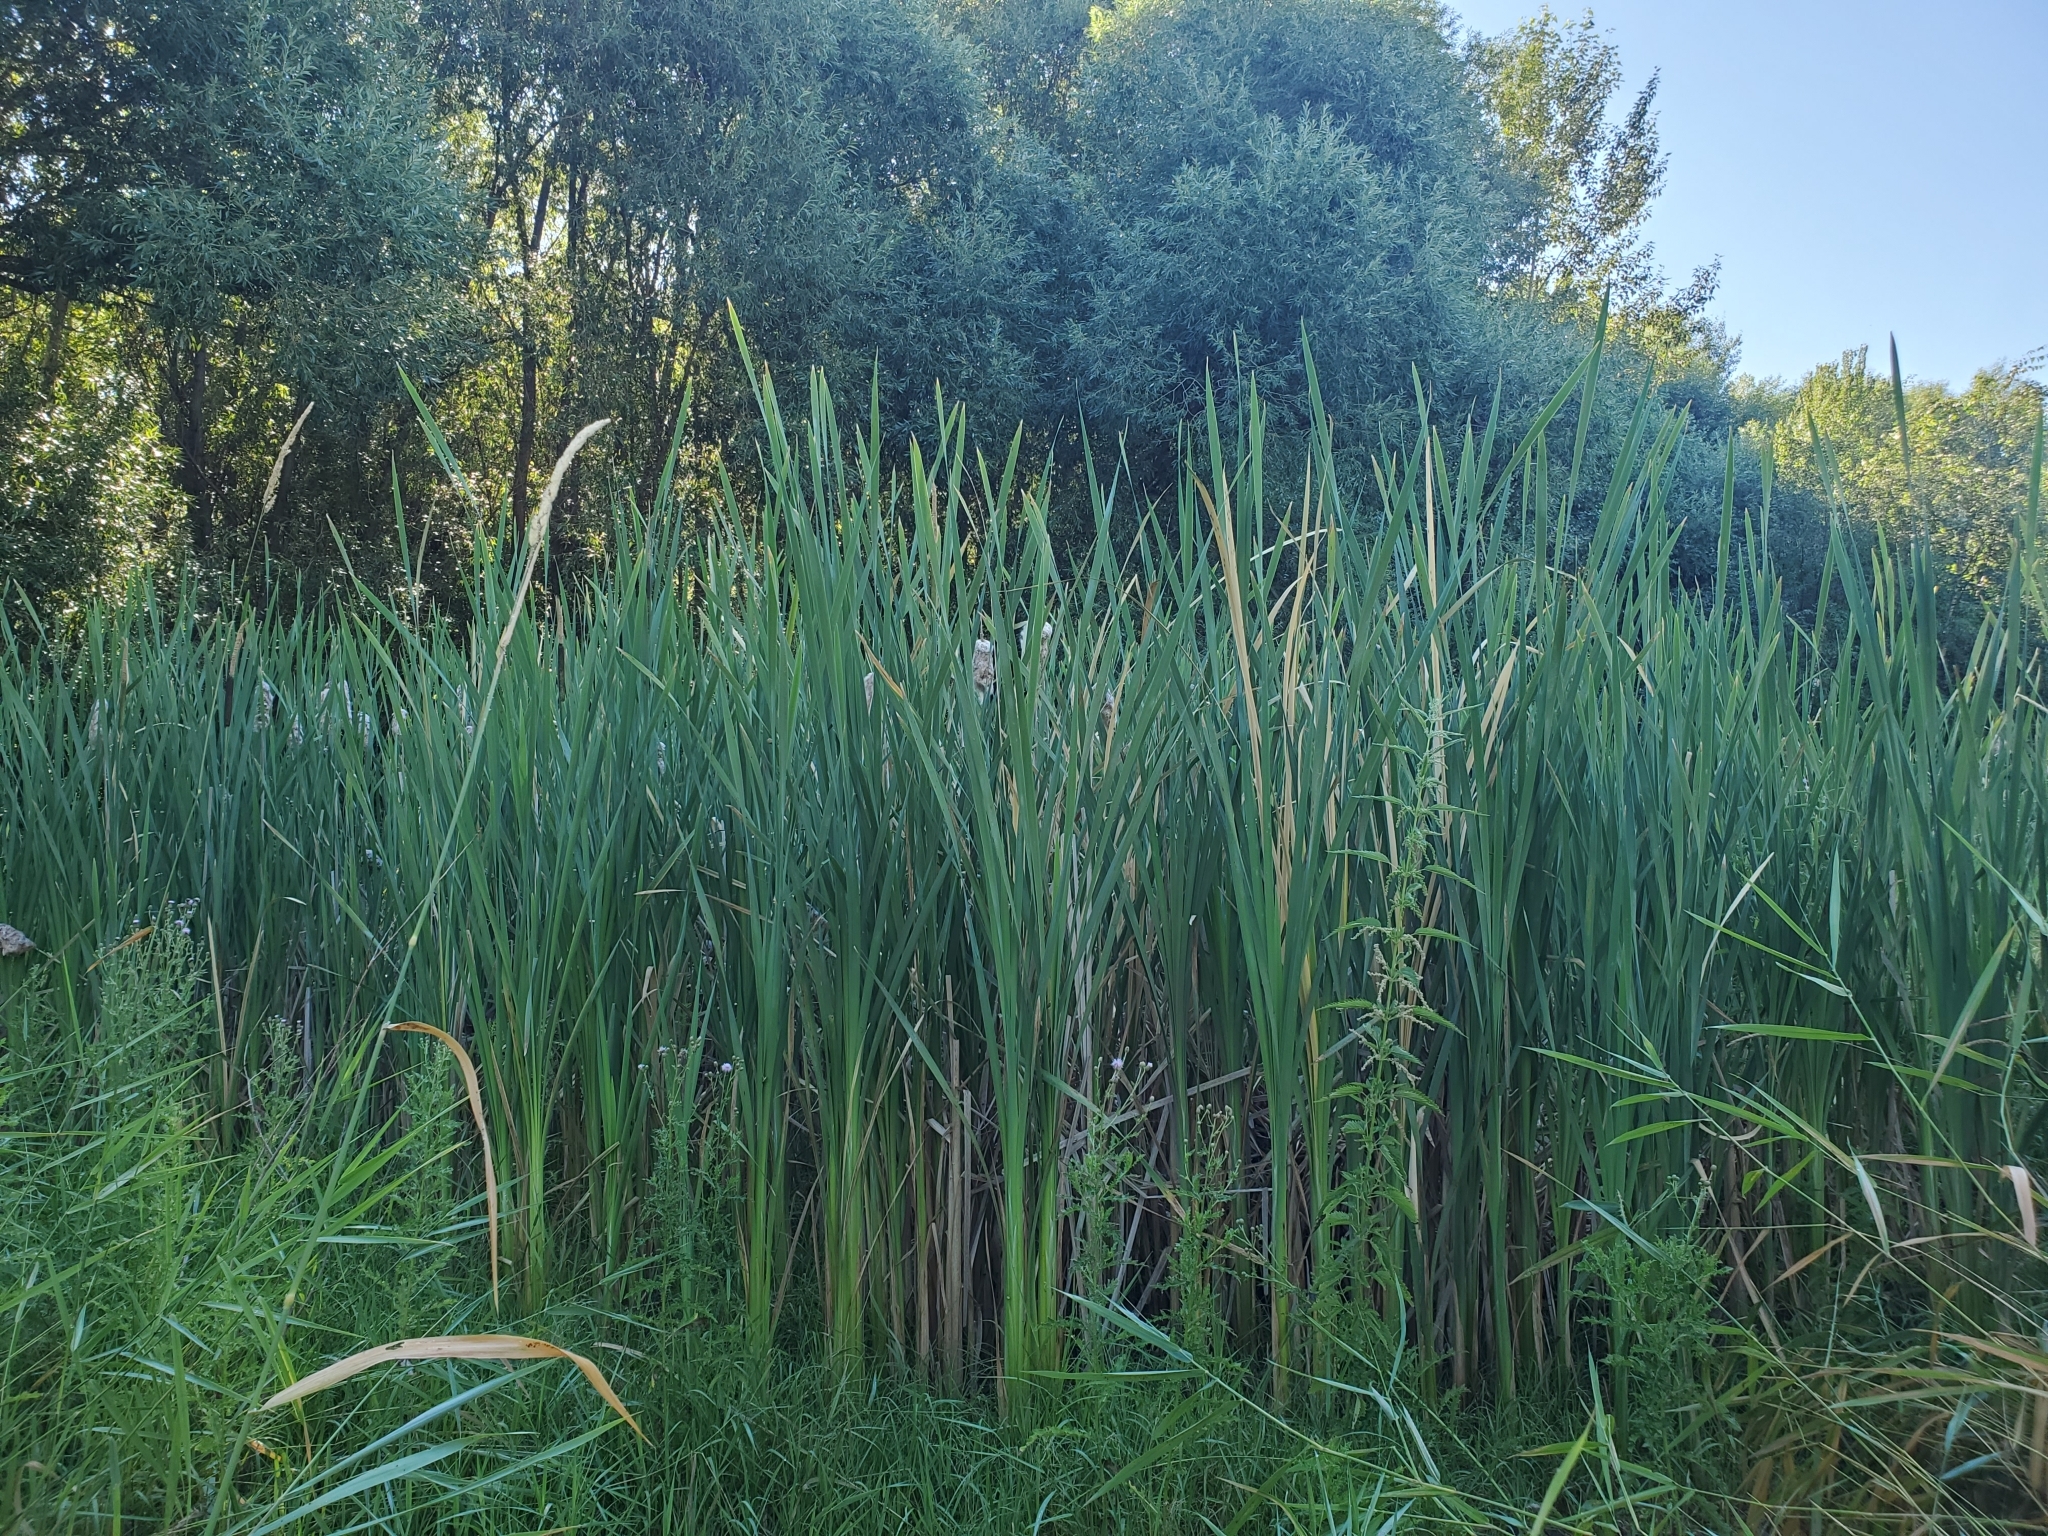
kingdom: Plantae
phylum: Tracheophyta
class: Liliopsida
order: Poales
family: Typhaceae
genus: Typha
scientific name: Typha latifolia
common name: Broadleaf cattail
